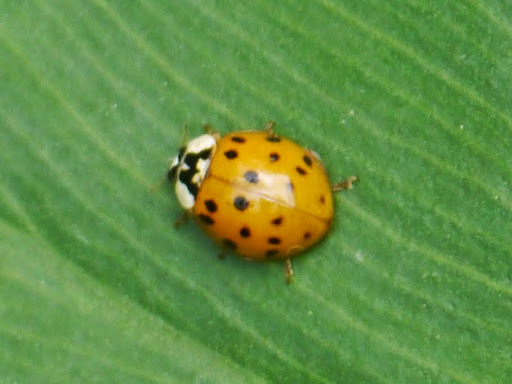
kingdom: Animalia
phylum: Arthropoda
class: Insecta
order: Coleoptera
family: Coccinellidae
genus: Harmonia
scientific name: Harmonia axyridis
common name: Harlequin ladybird
